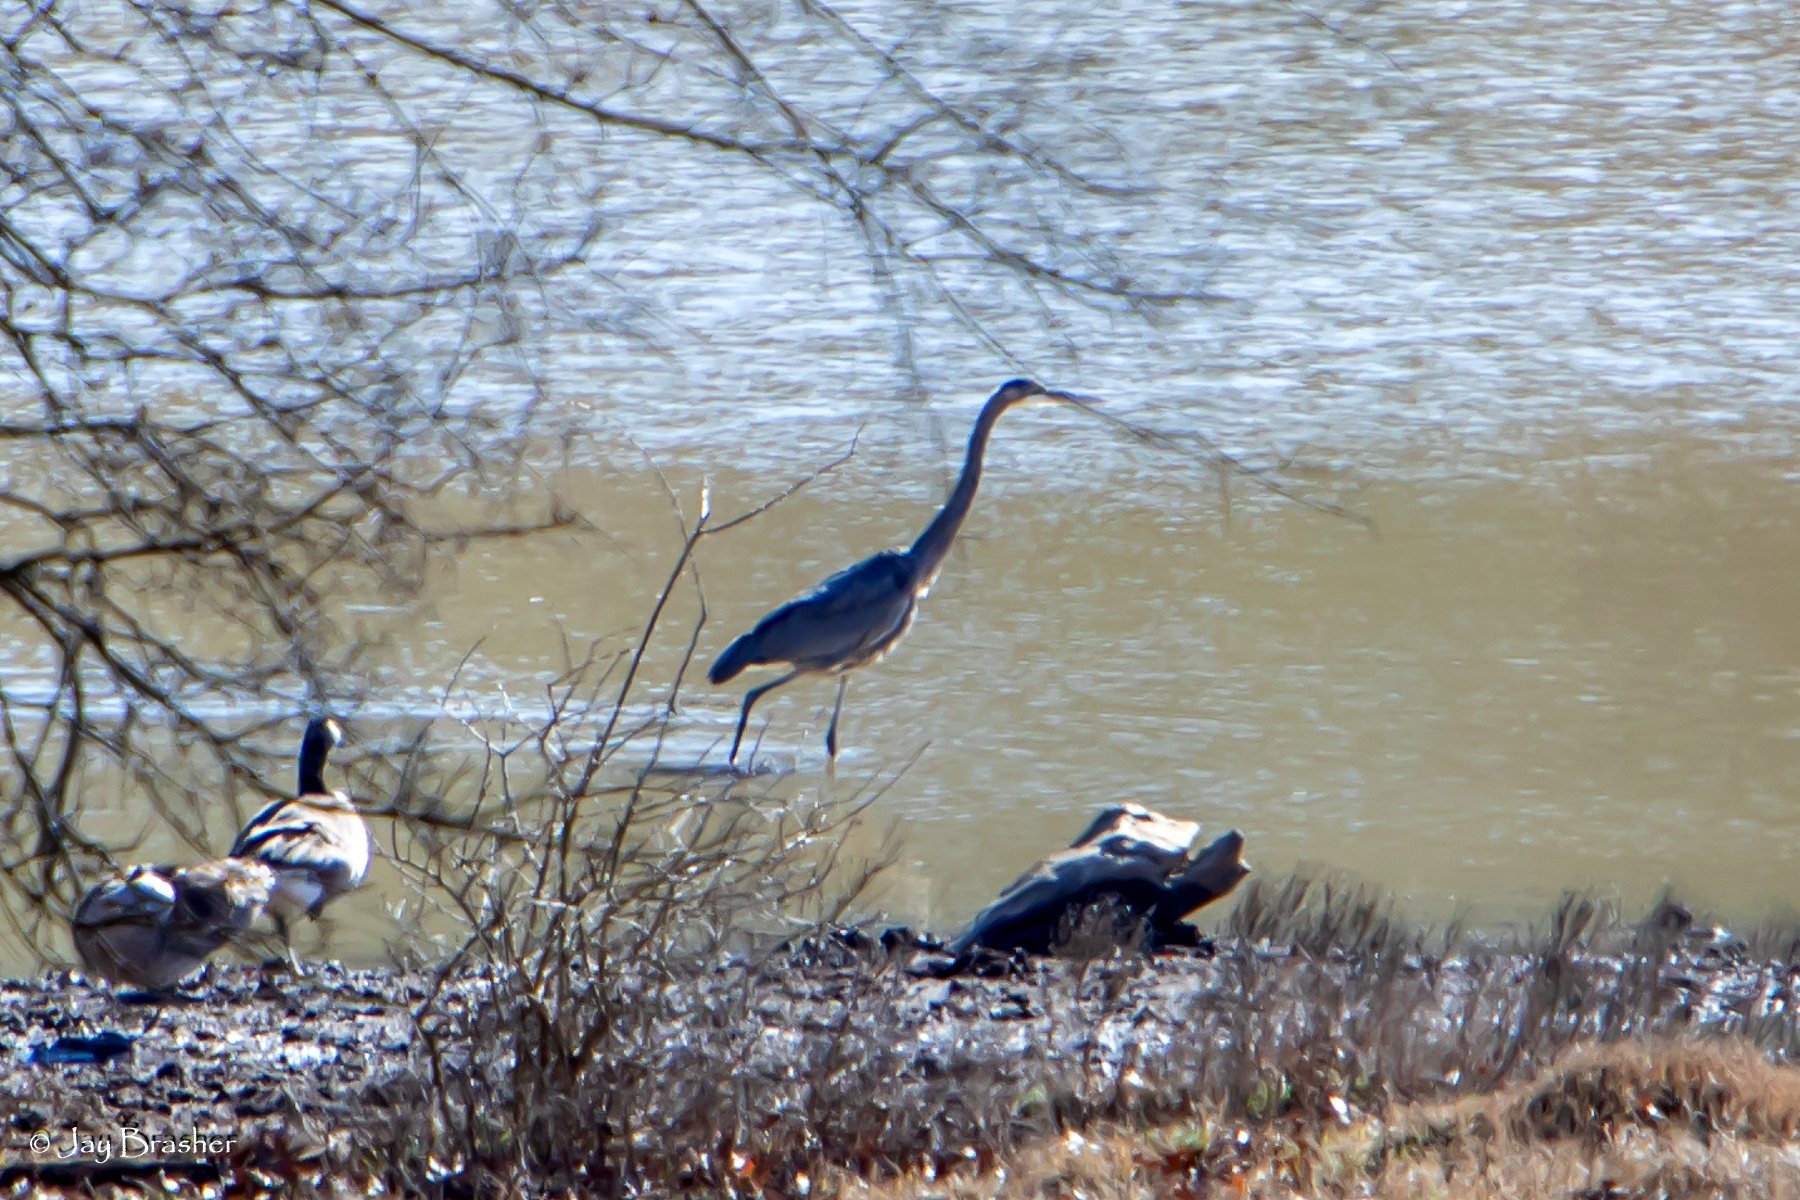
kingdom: Animalia
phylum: Chordata
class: Aves
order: Pelecaniformes
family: Ardeidae
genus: Ardea
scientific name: Ardea herodias
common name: Great blue heron
